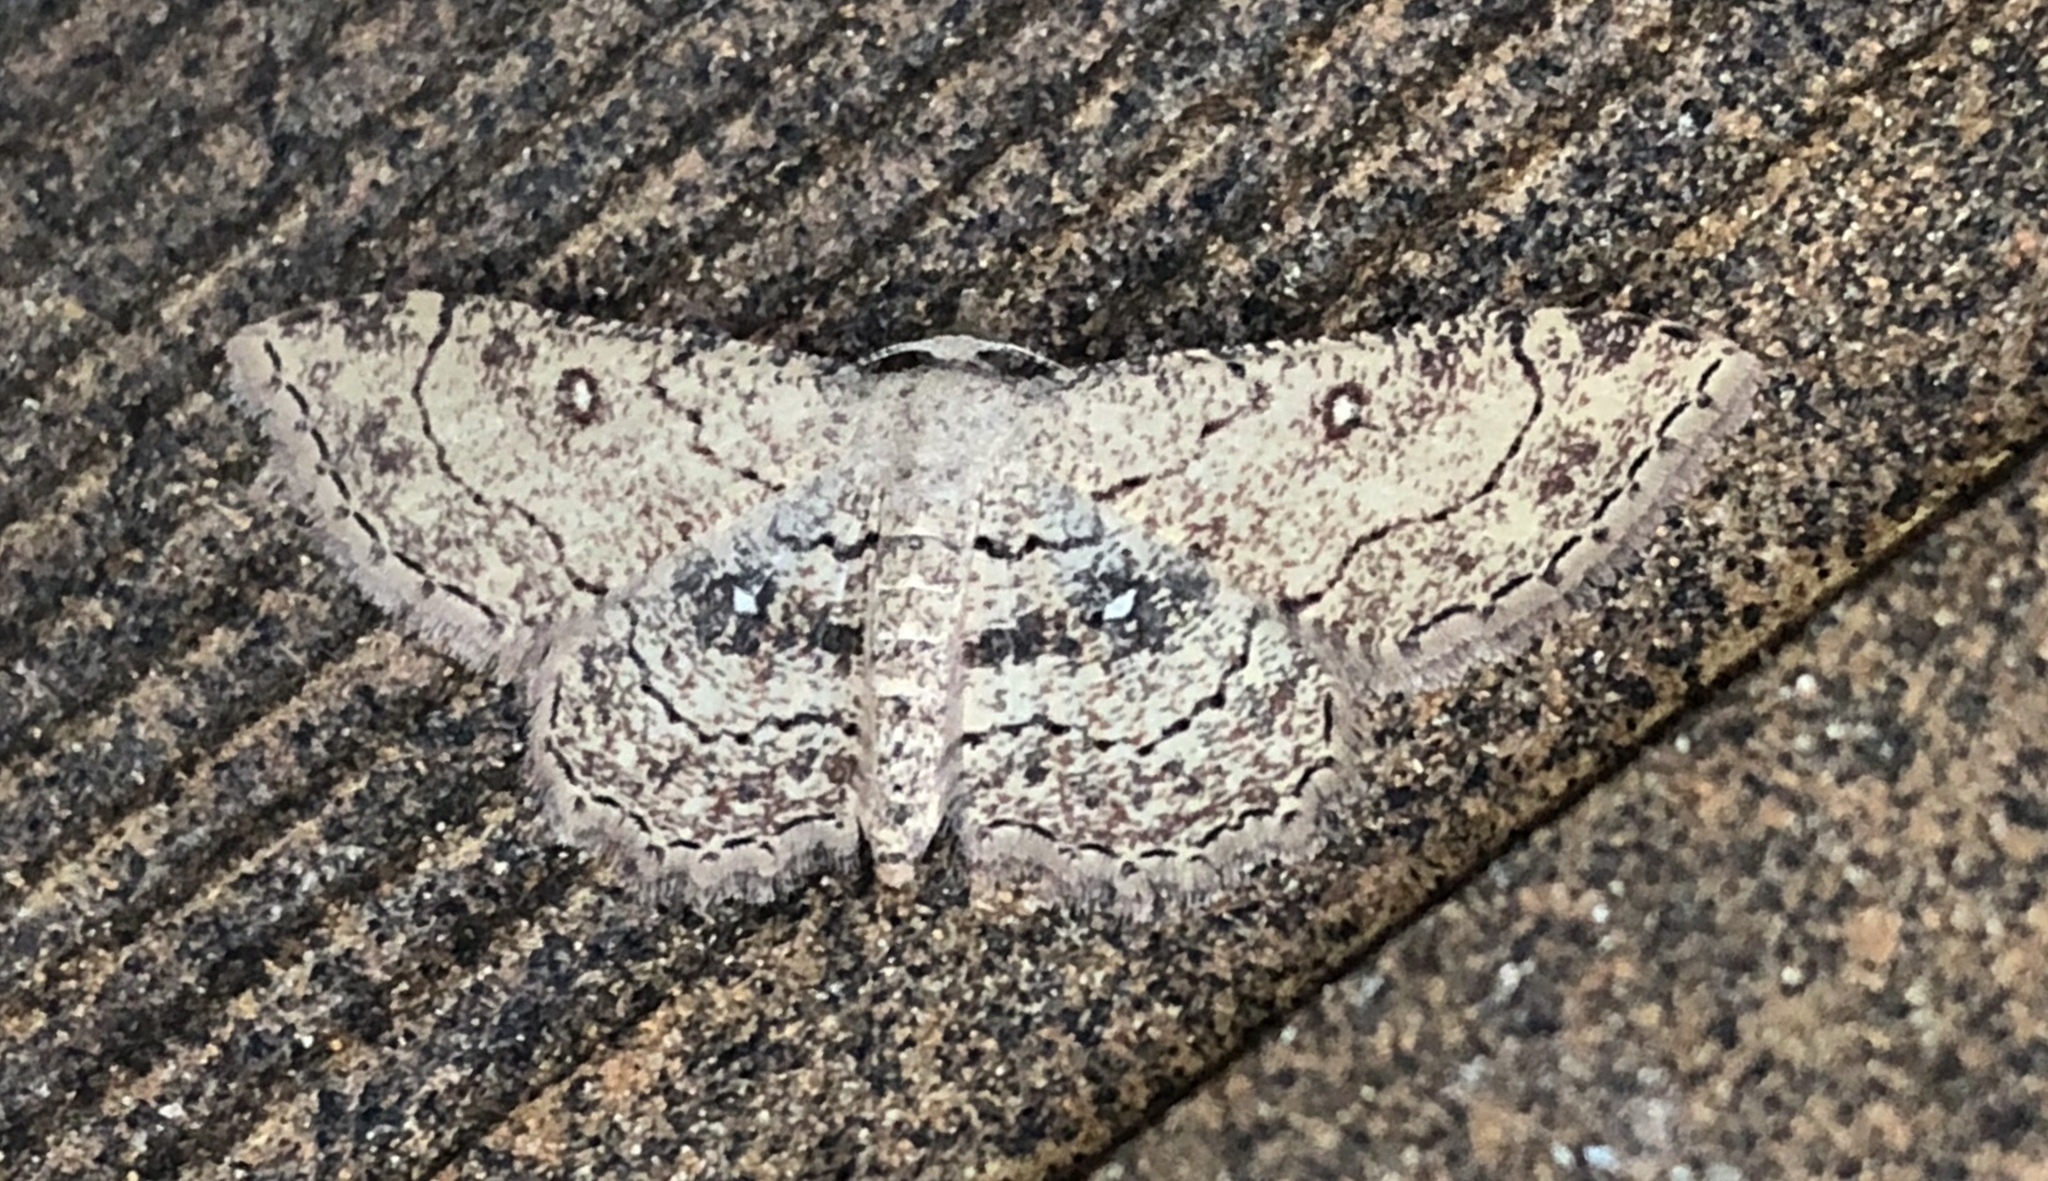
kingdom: Animalia
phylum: Arthropoda
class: Insecta
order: Lepidoptera
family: Geometridae
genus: Cyclophora
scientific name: Cyclophora nanaria
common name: Cankerworm
